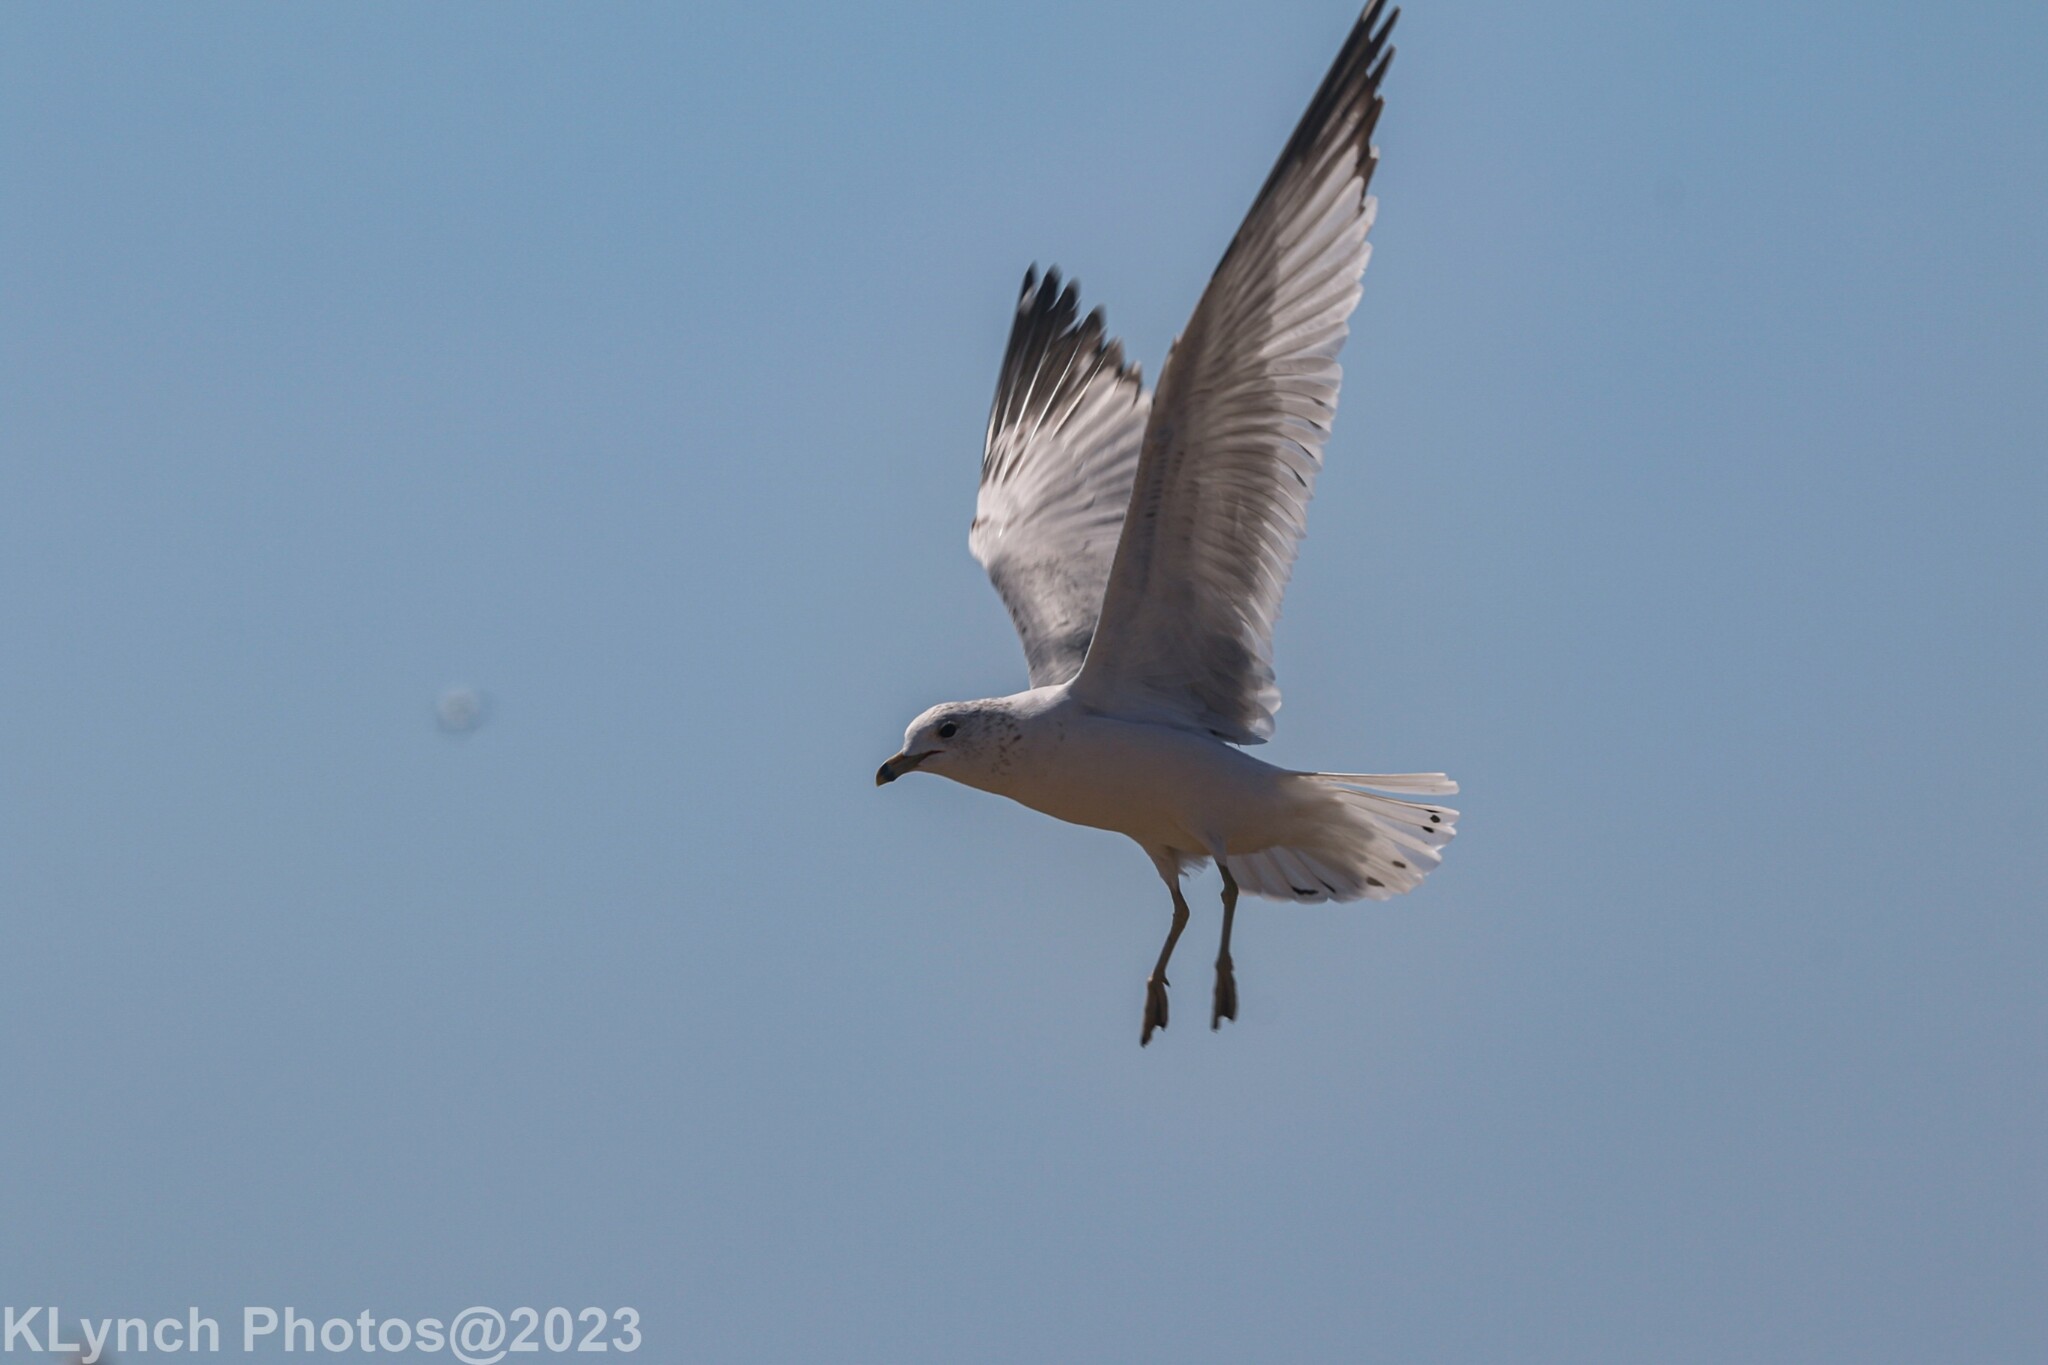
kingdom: Animalia
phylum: Chordata
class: Aves
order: Charadriiformes
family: Laridae
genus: Larus
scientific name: Larus delawarensis
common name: Ring-billed gull
